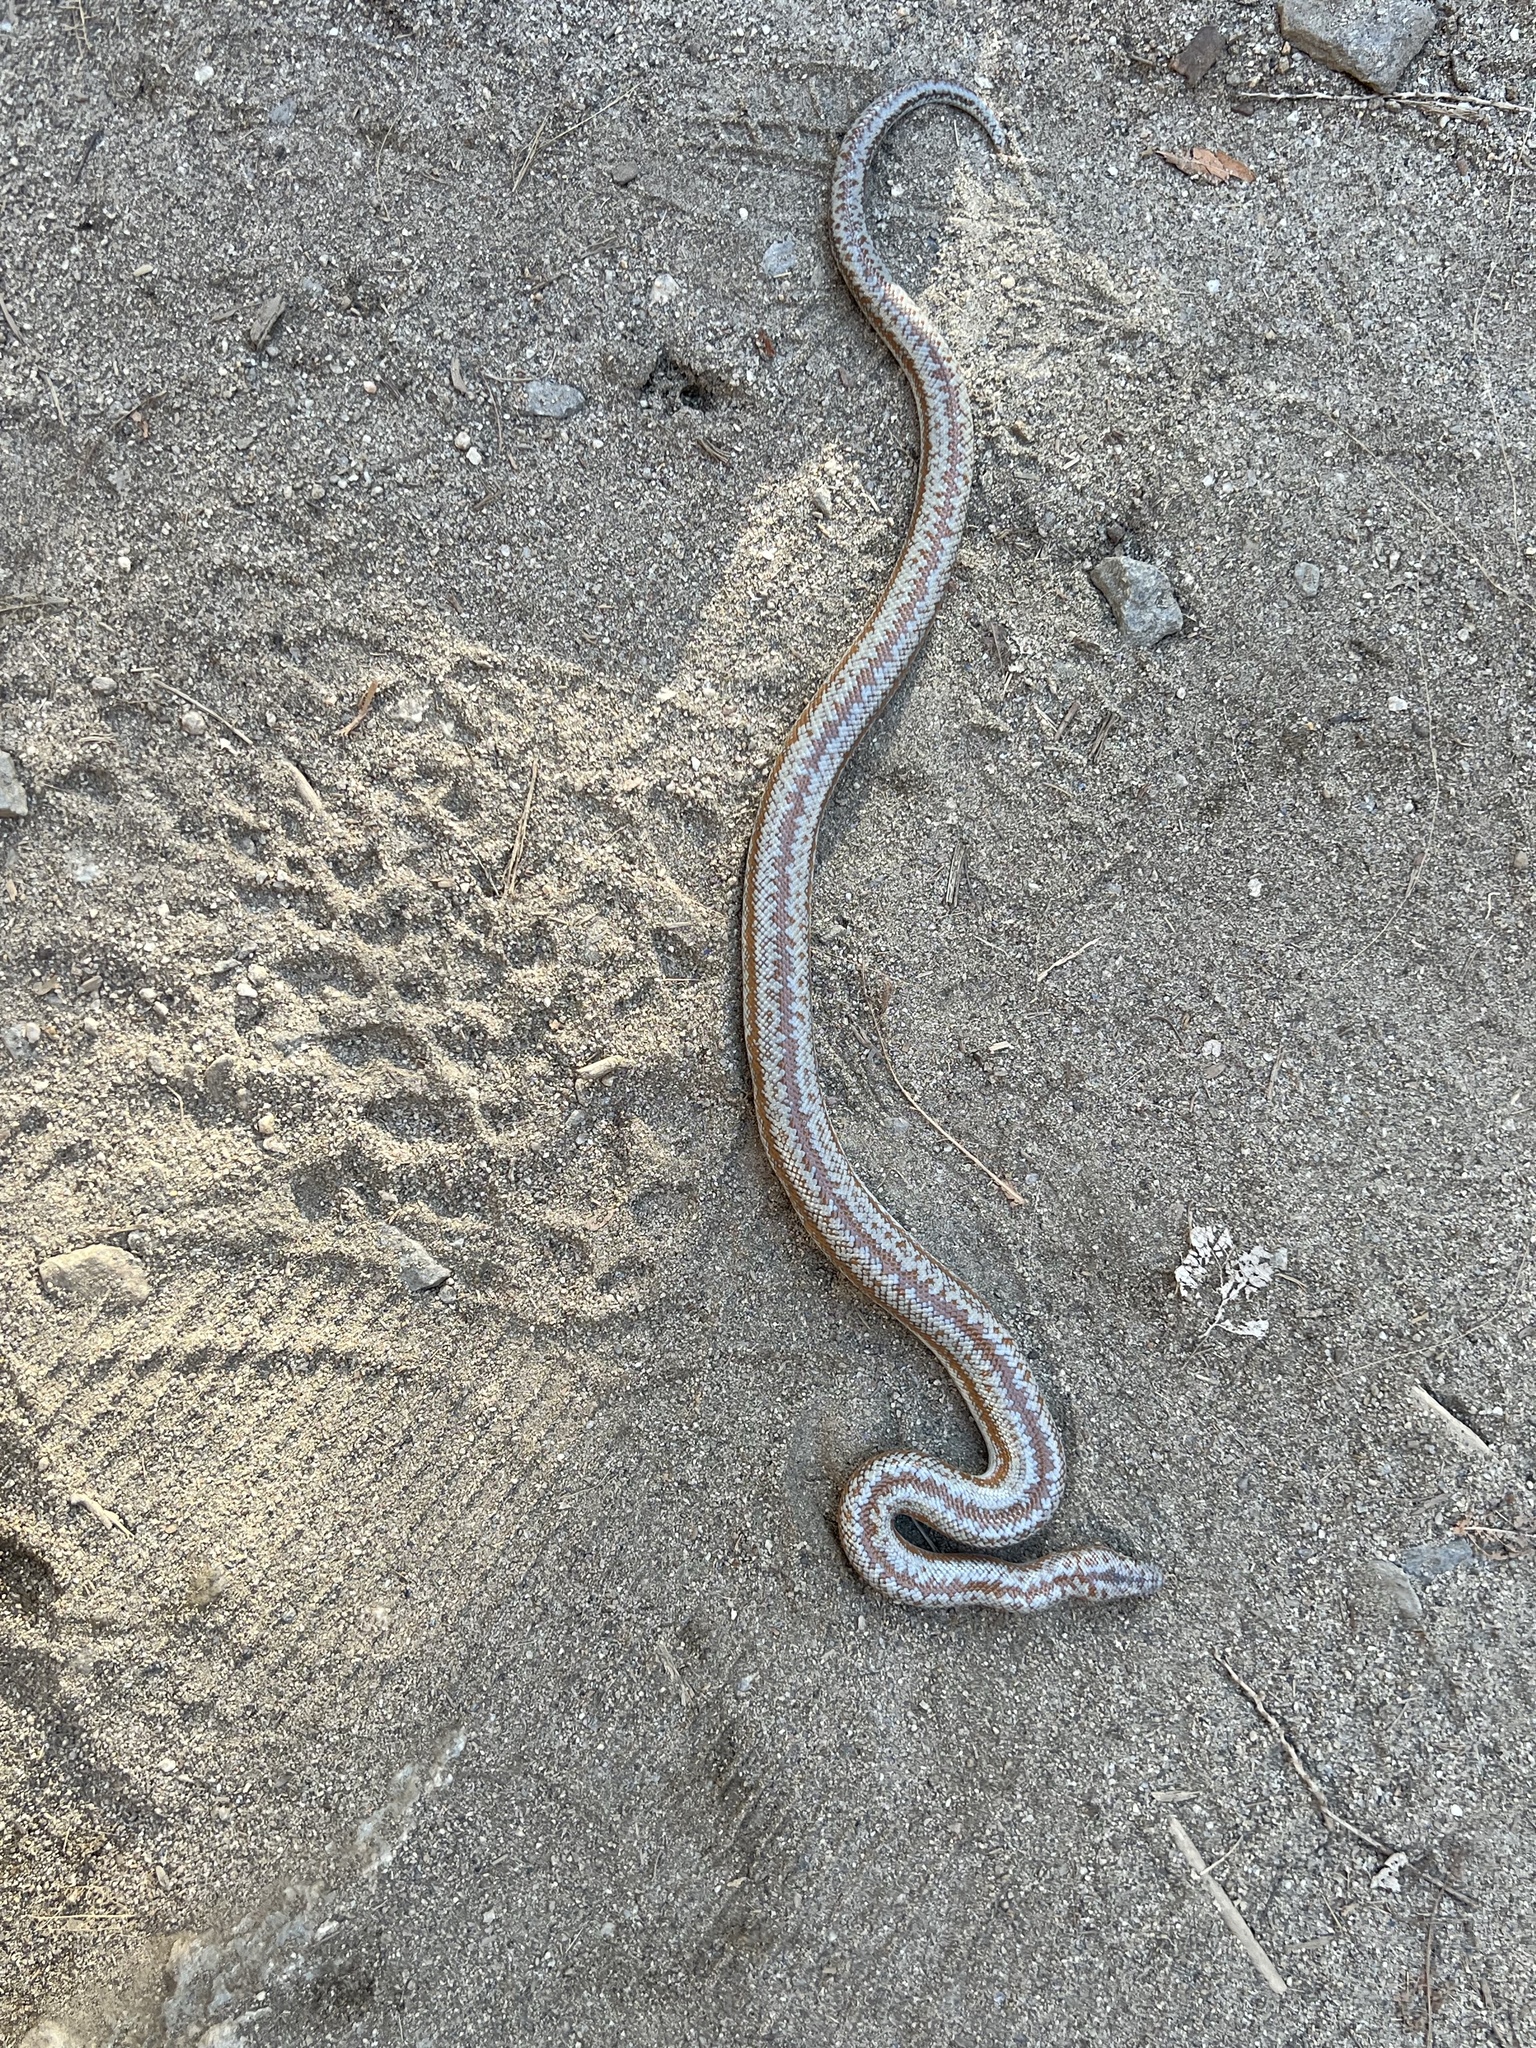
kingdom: Animalia
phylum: Chordata
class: Squamata
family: Boidae
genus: Lichanura
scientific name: Lichanura orcutti
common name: Northern three-lined boa
